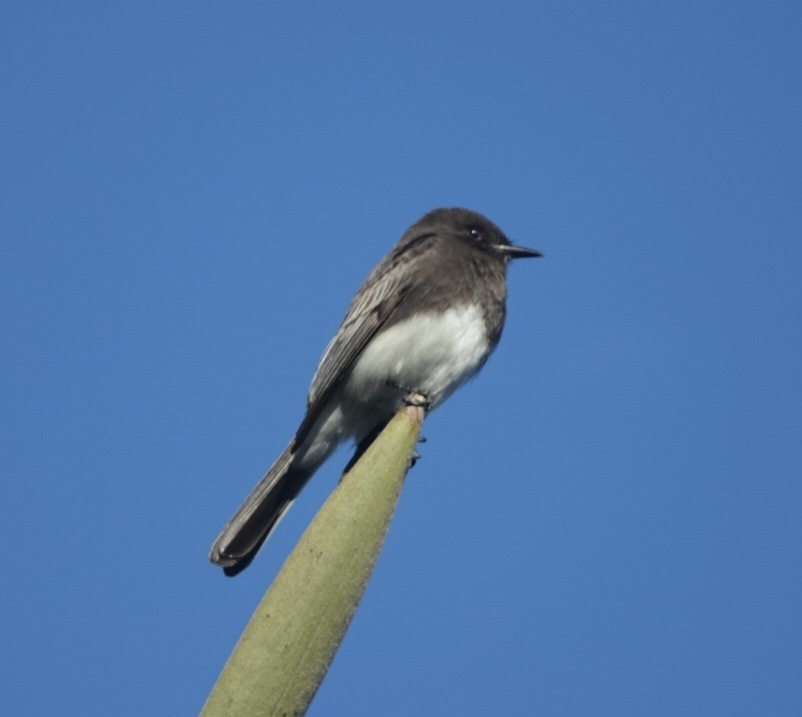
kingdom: Animalia
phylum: Chordata
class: Aves
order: Passeriformes
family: Tyrannidae
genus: Sayornis
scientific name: Sayornis nigricans
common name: Black phoebe
